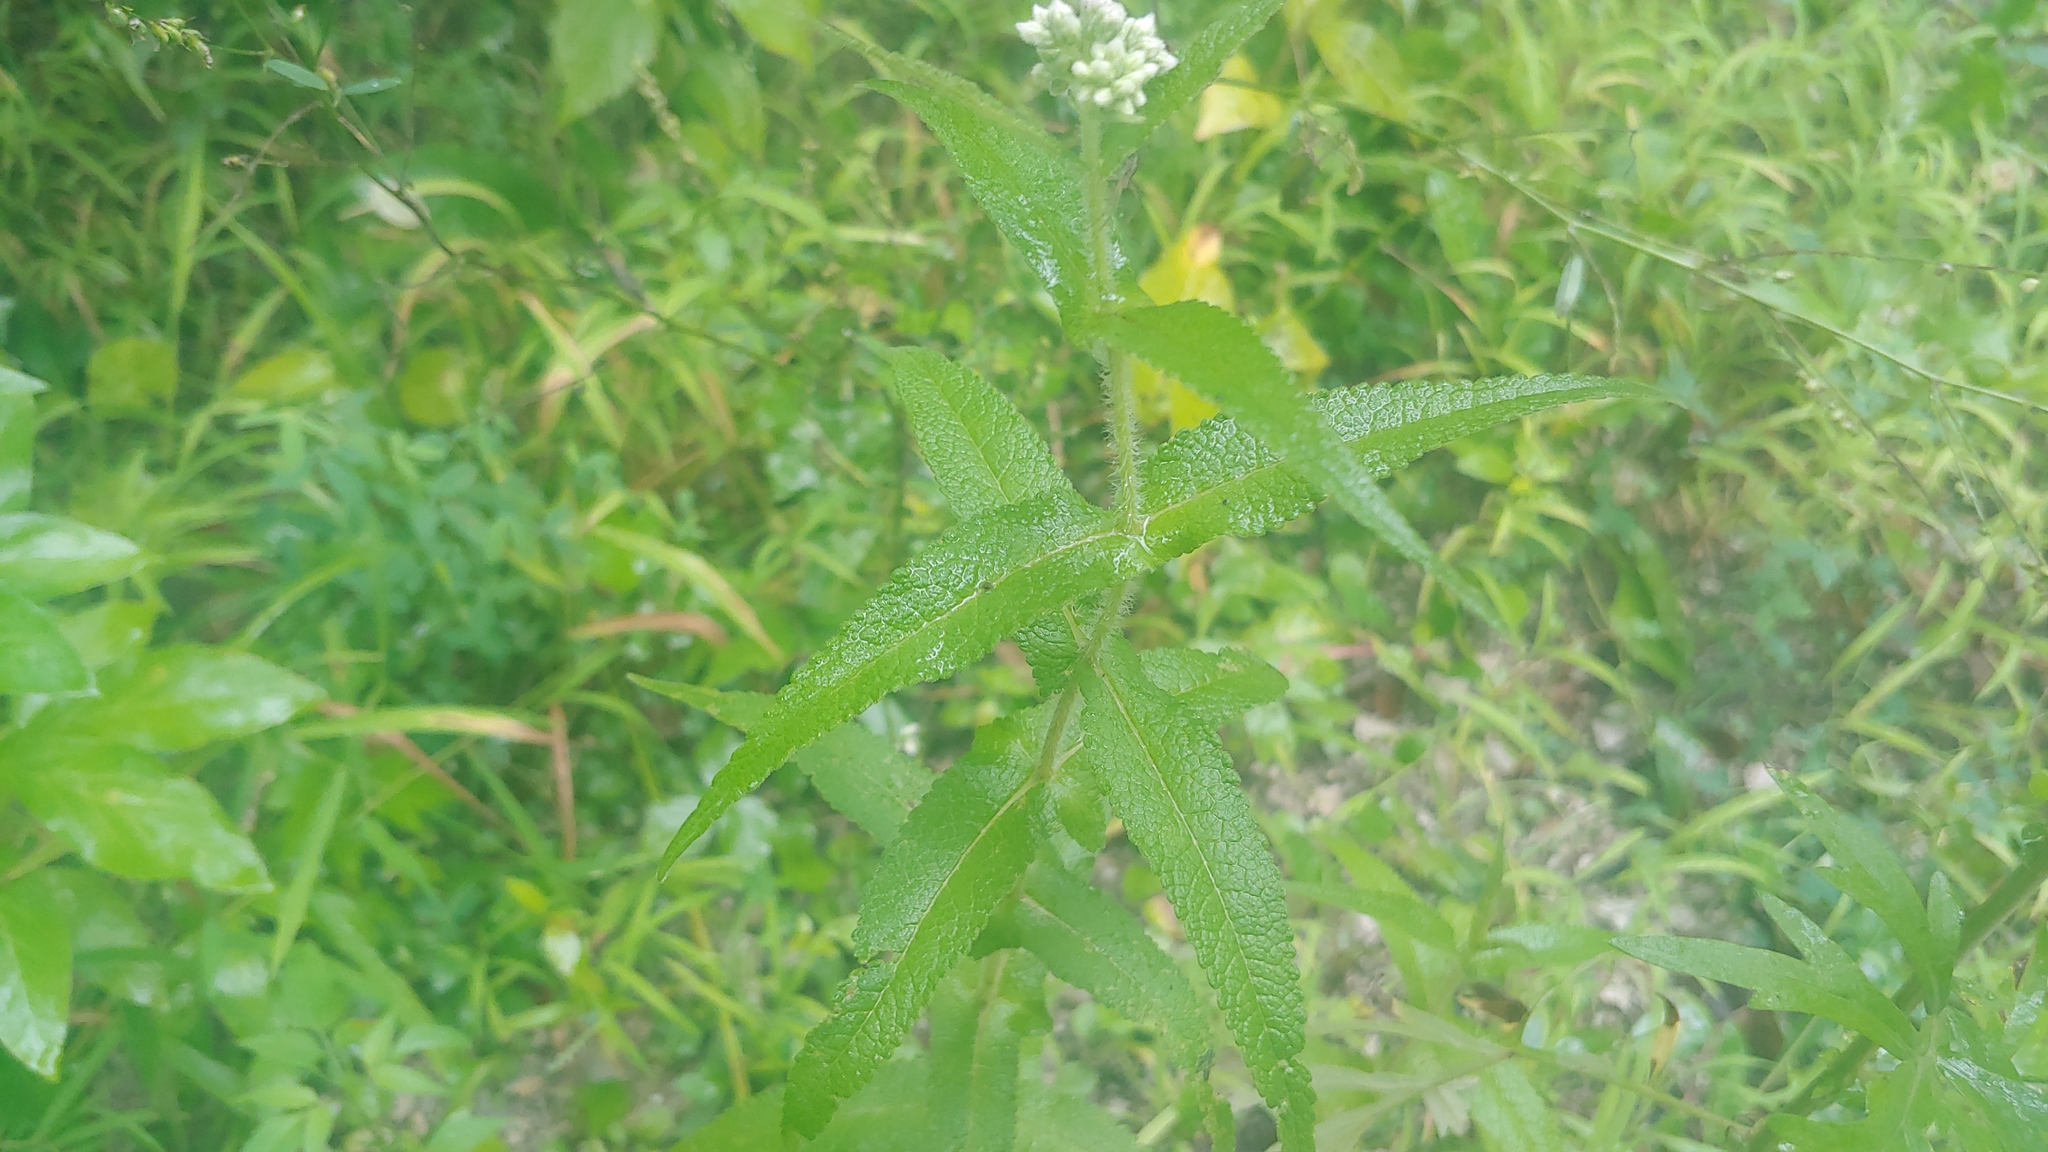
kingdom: Plantae
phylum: Tracheophyta
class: Magnoliopsida
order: Asterales
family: Asteraceae
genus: Eupatorium
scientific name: Eupatorium perfoliatum
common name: Boneset
